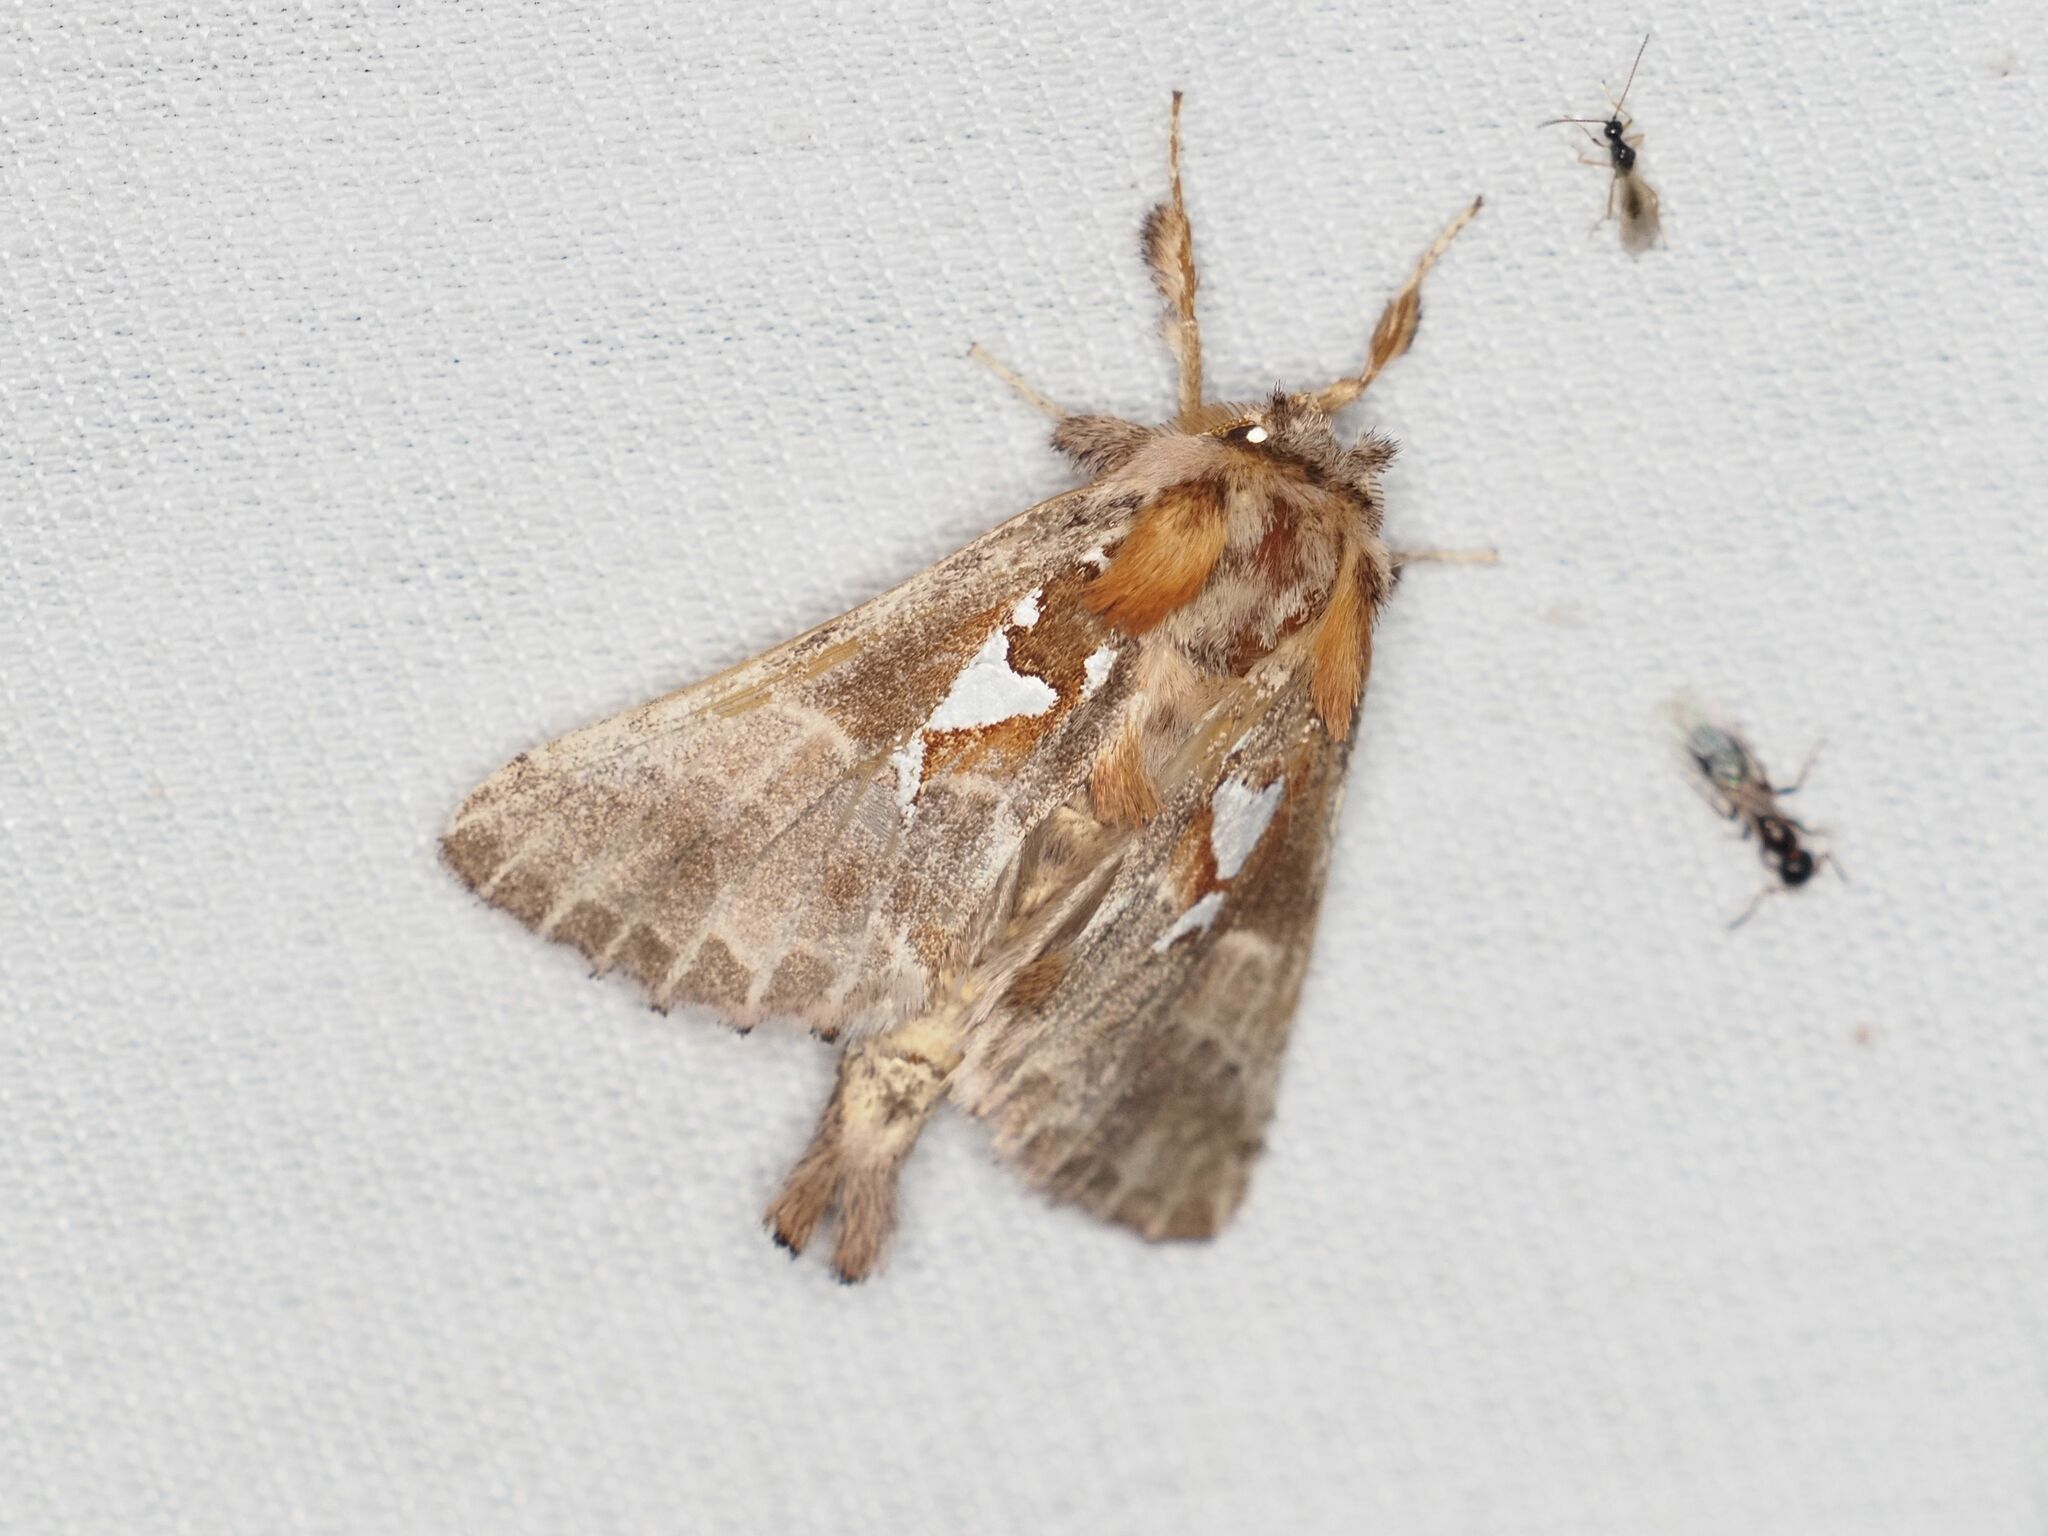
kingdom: Animalia
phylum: Arthropoda
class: Insecta
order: Lepidoptera
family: Notodontidae
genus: Spatalia
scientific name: Spatalia argentina
